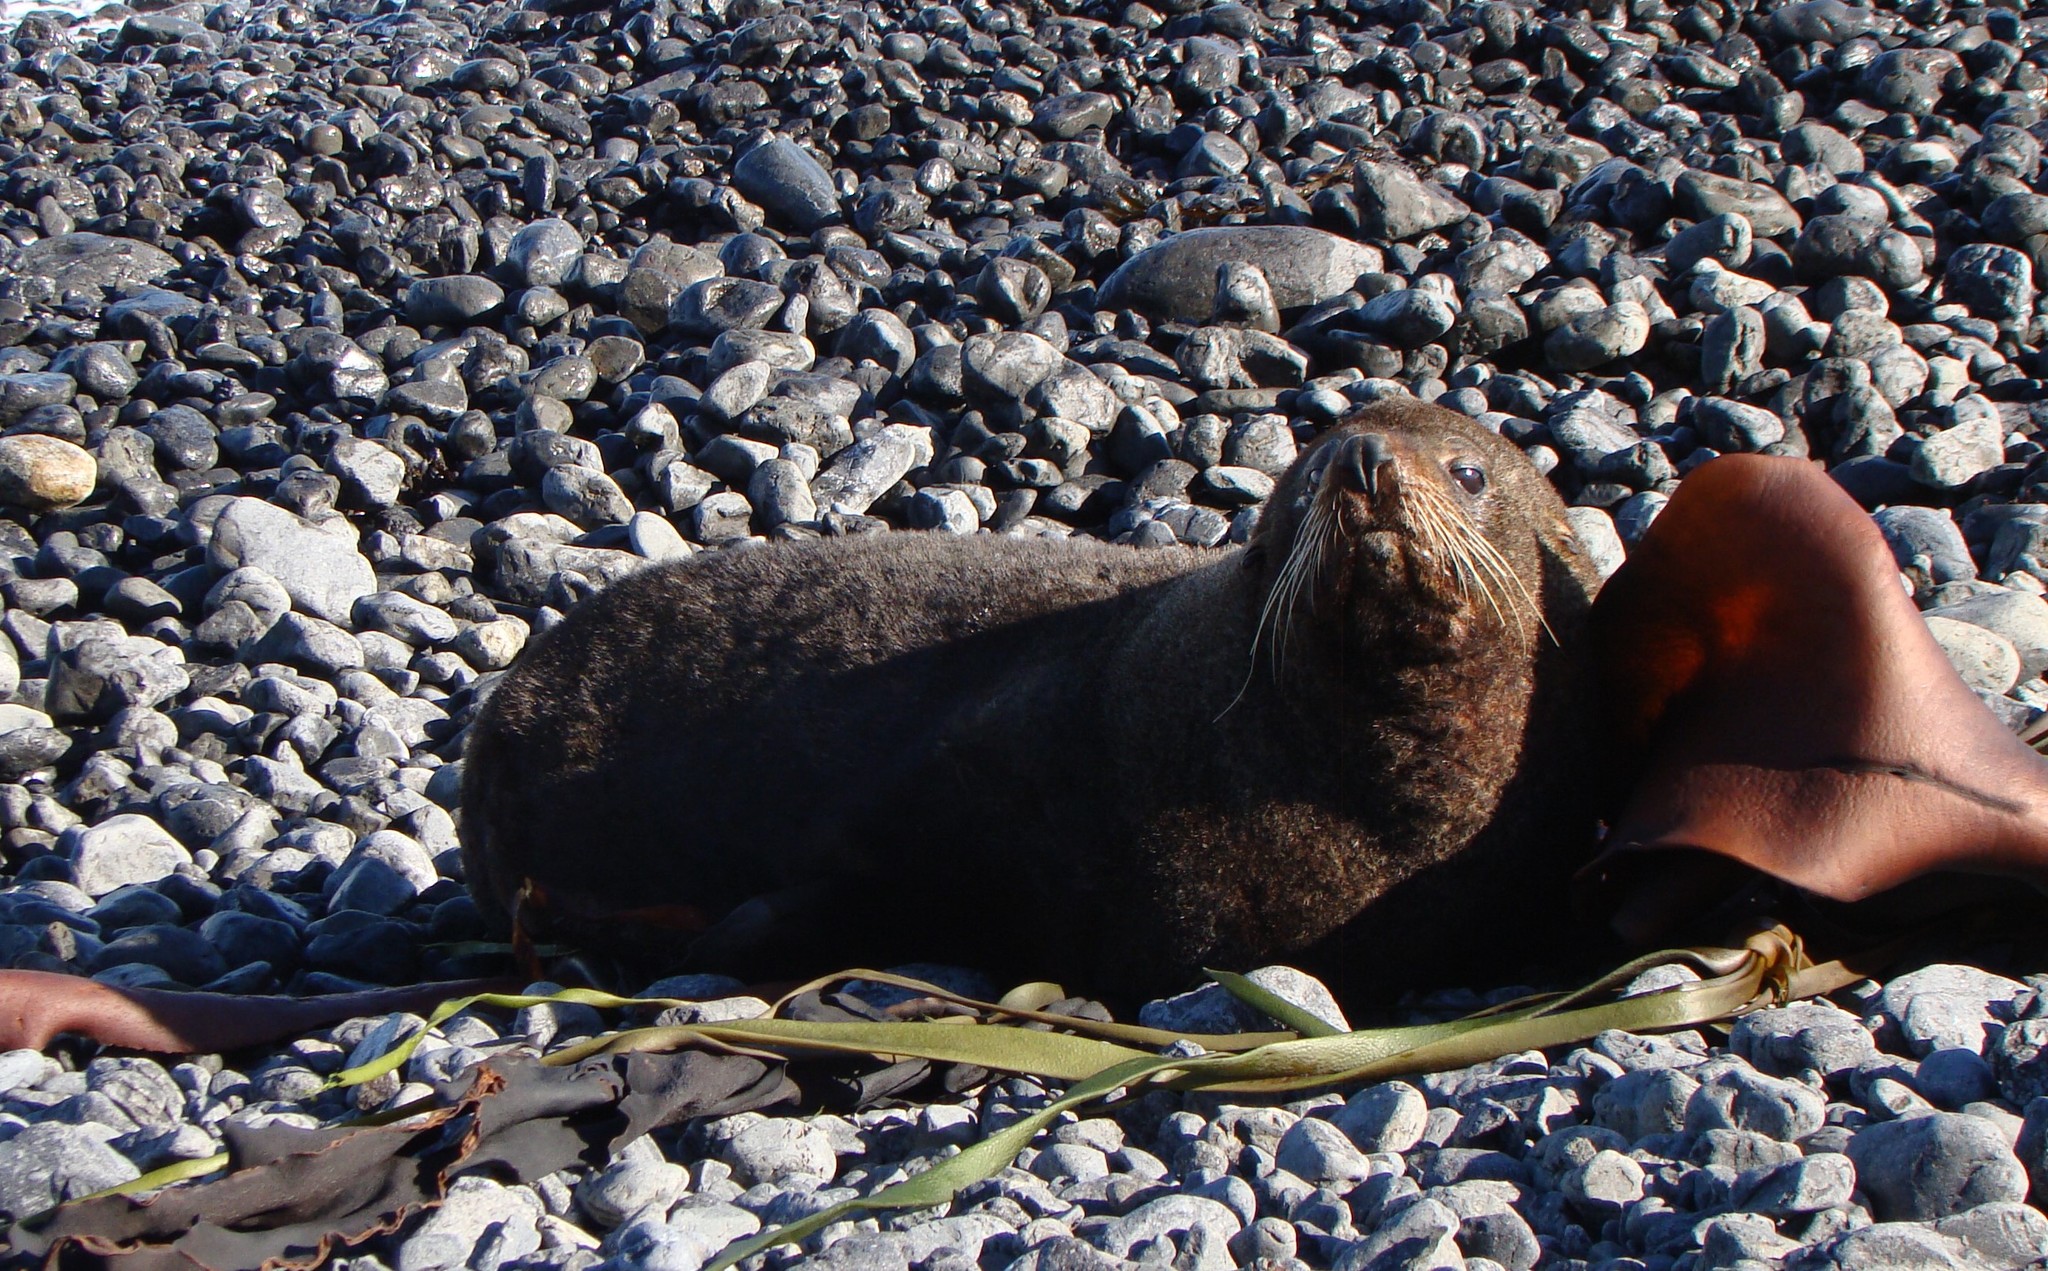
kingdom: Animalia
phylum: Chordata
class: Mammalia
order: Carnivora
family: Otariidae
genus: Arctocephalus
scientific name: Arctocephalus forsteri
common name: New zealand fur seal
